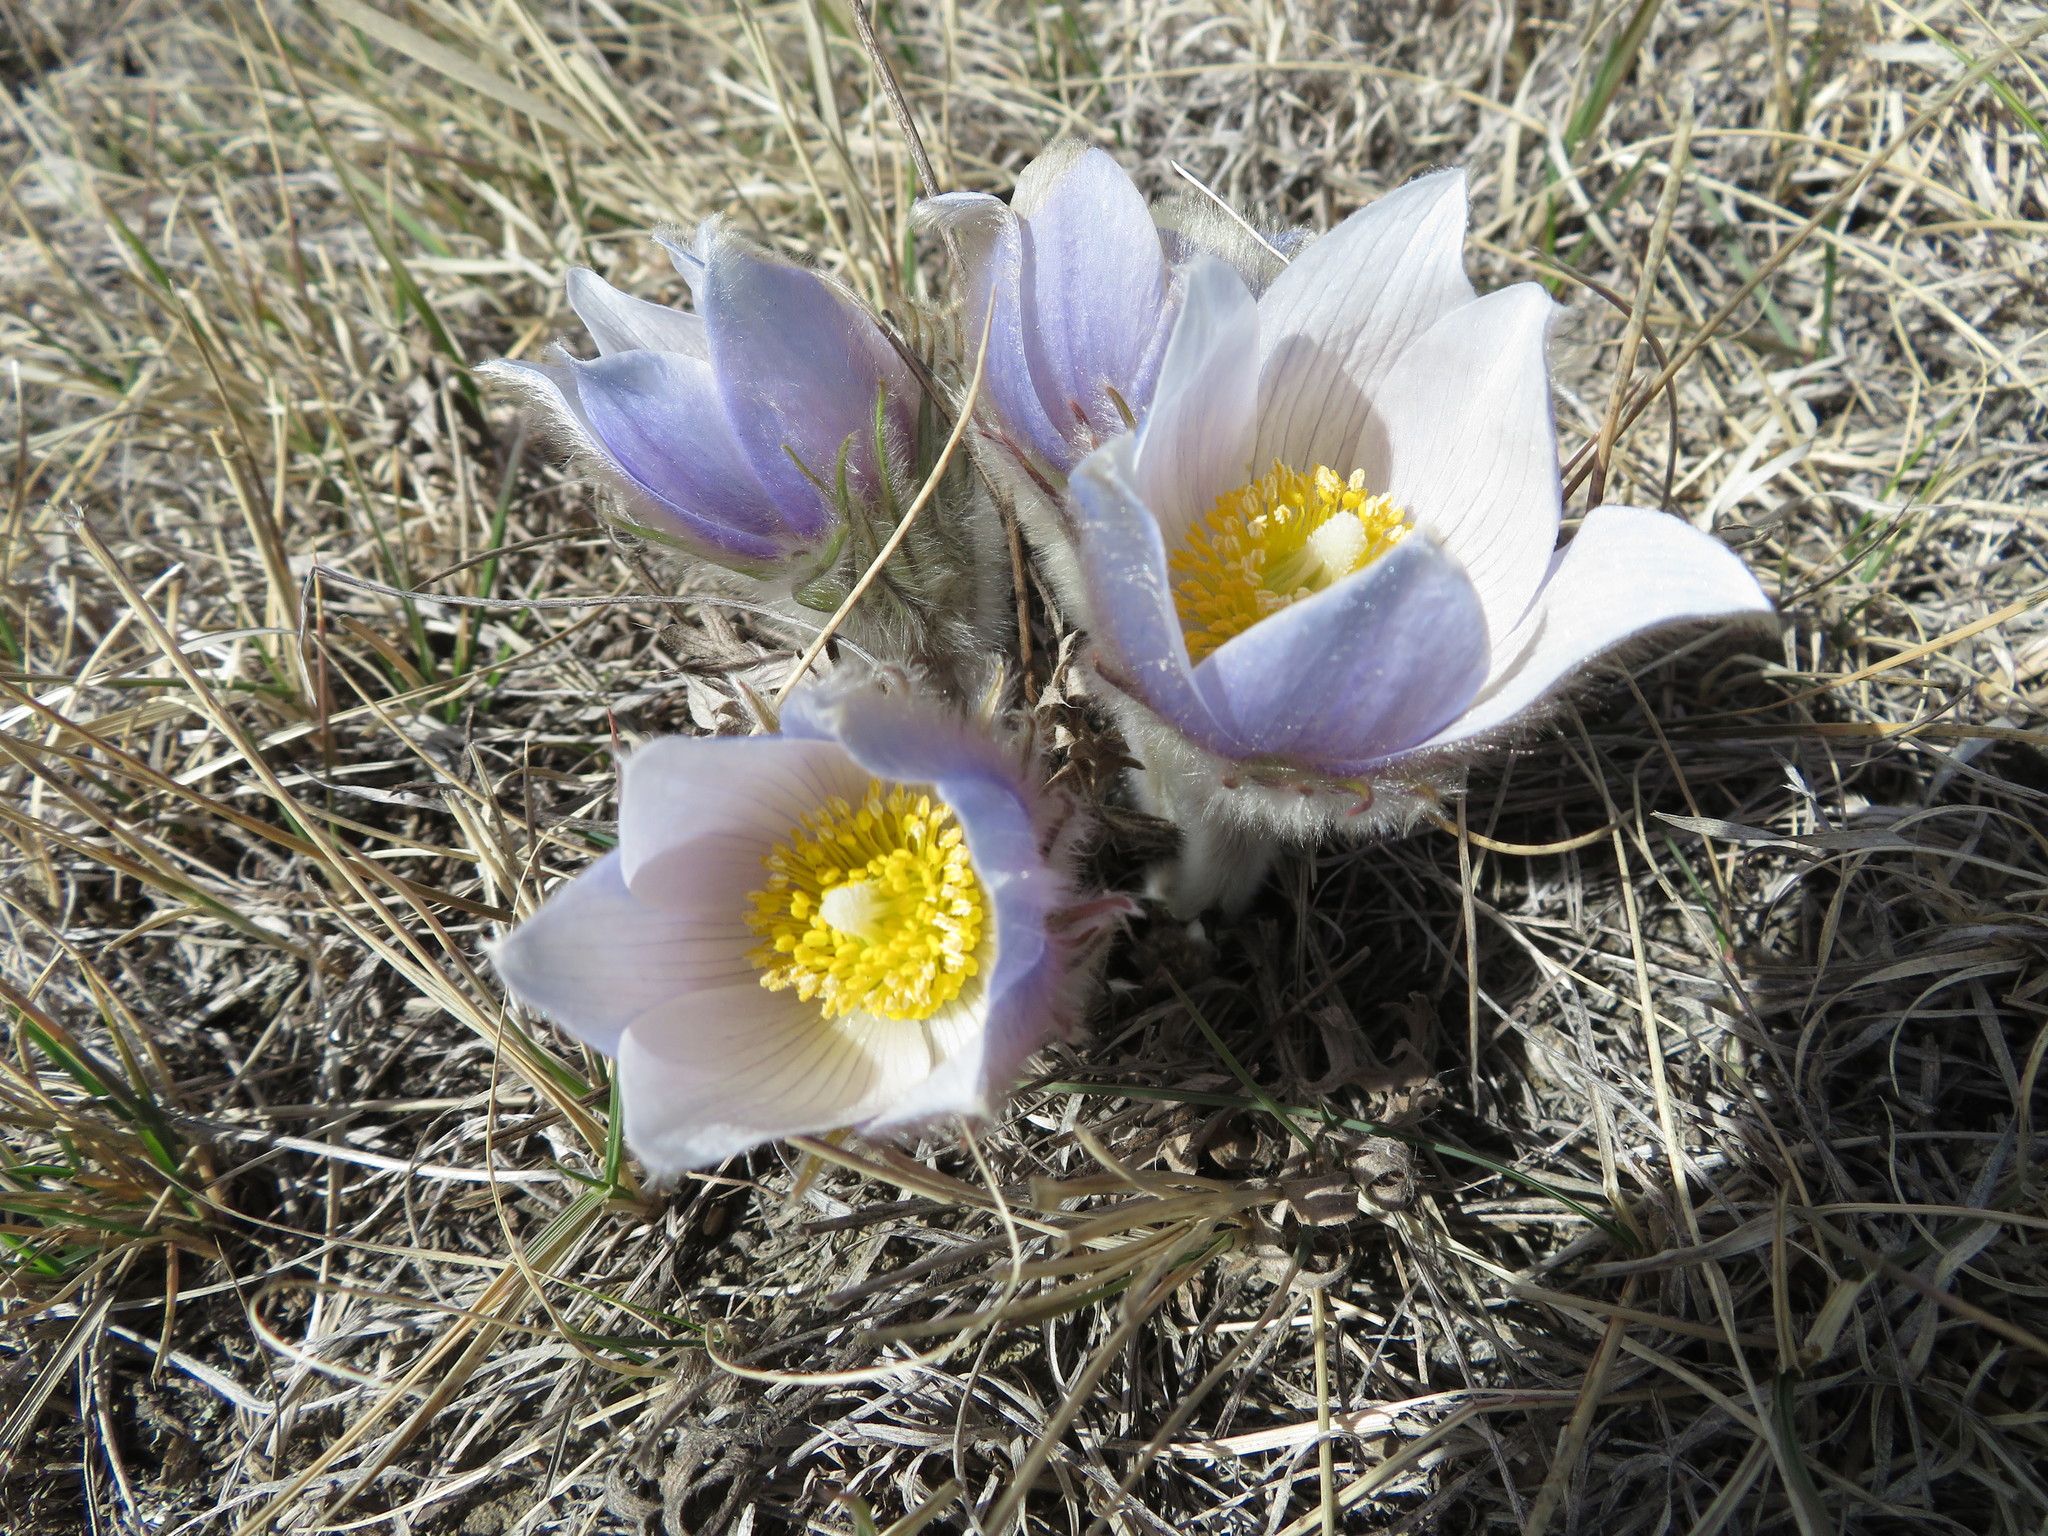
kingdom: Plantae
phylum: Tracheophyta
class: Magnoliopsida
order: Ranunculales
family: Ranunculaceae
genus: Pulsatilla
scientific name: Pulsatilla nuttalliana
